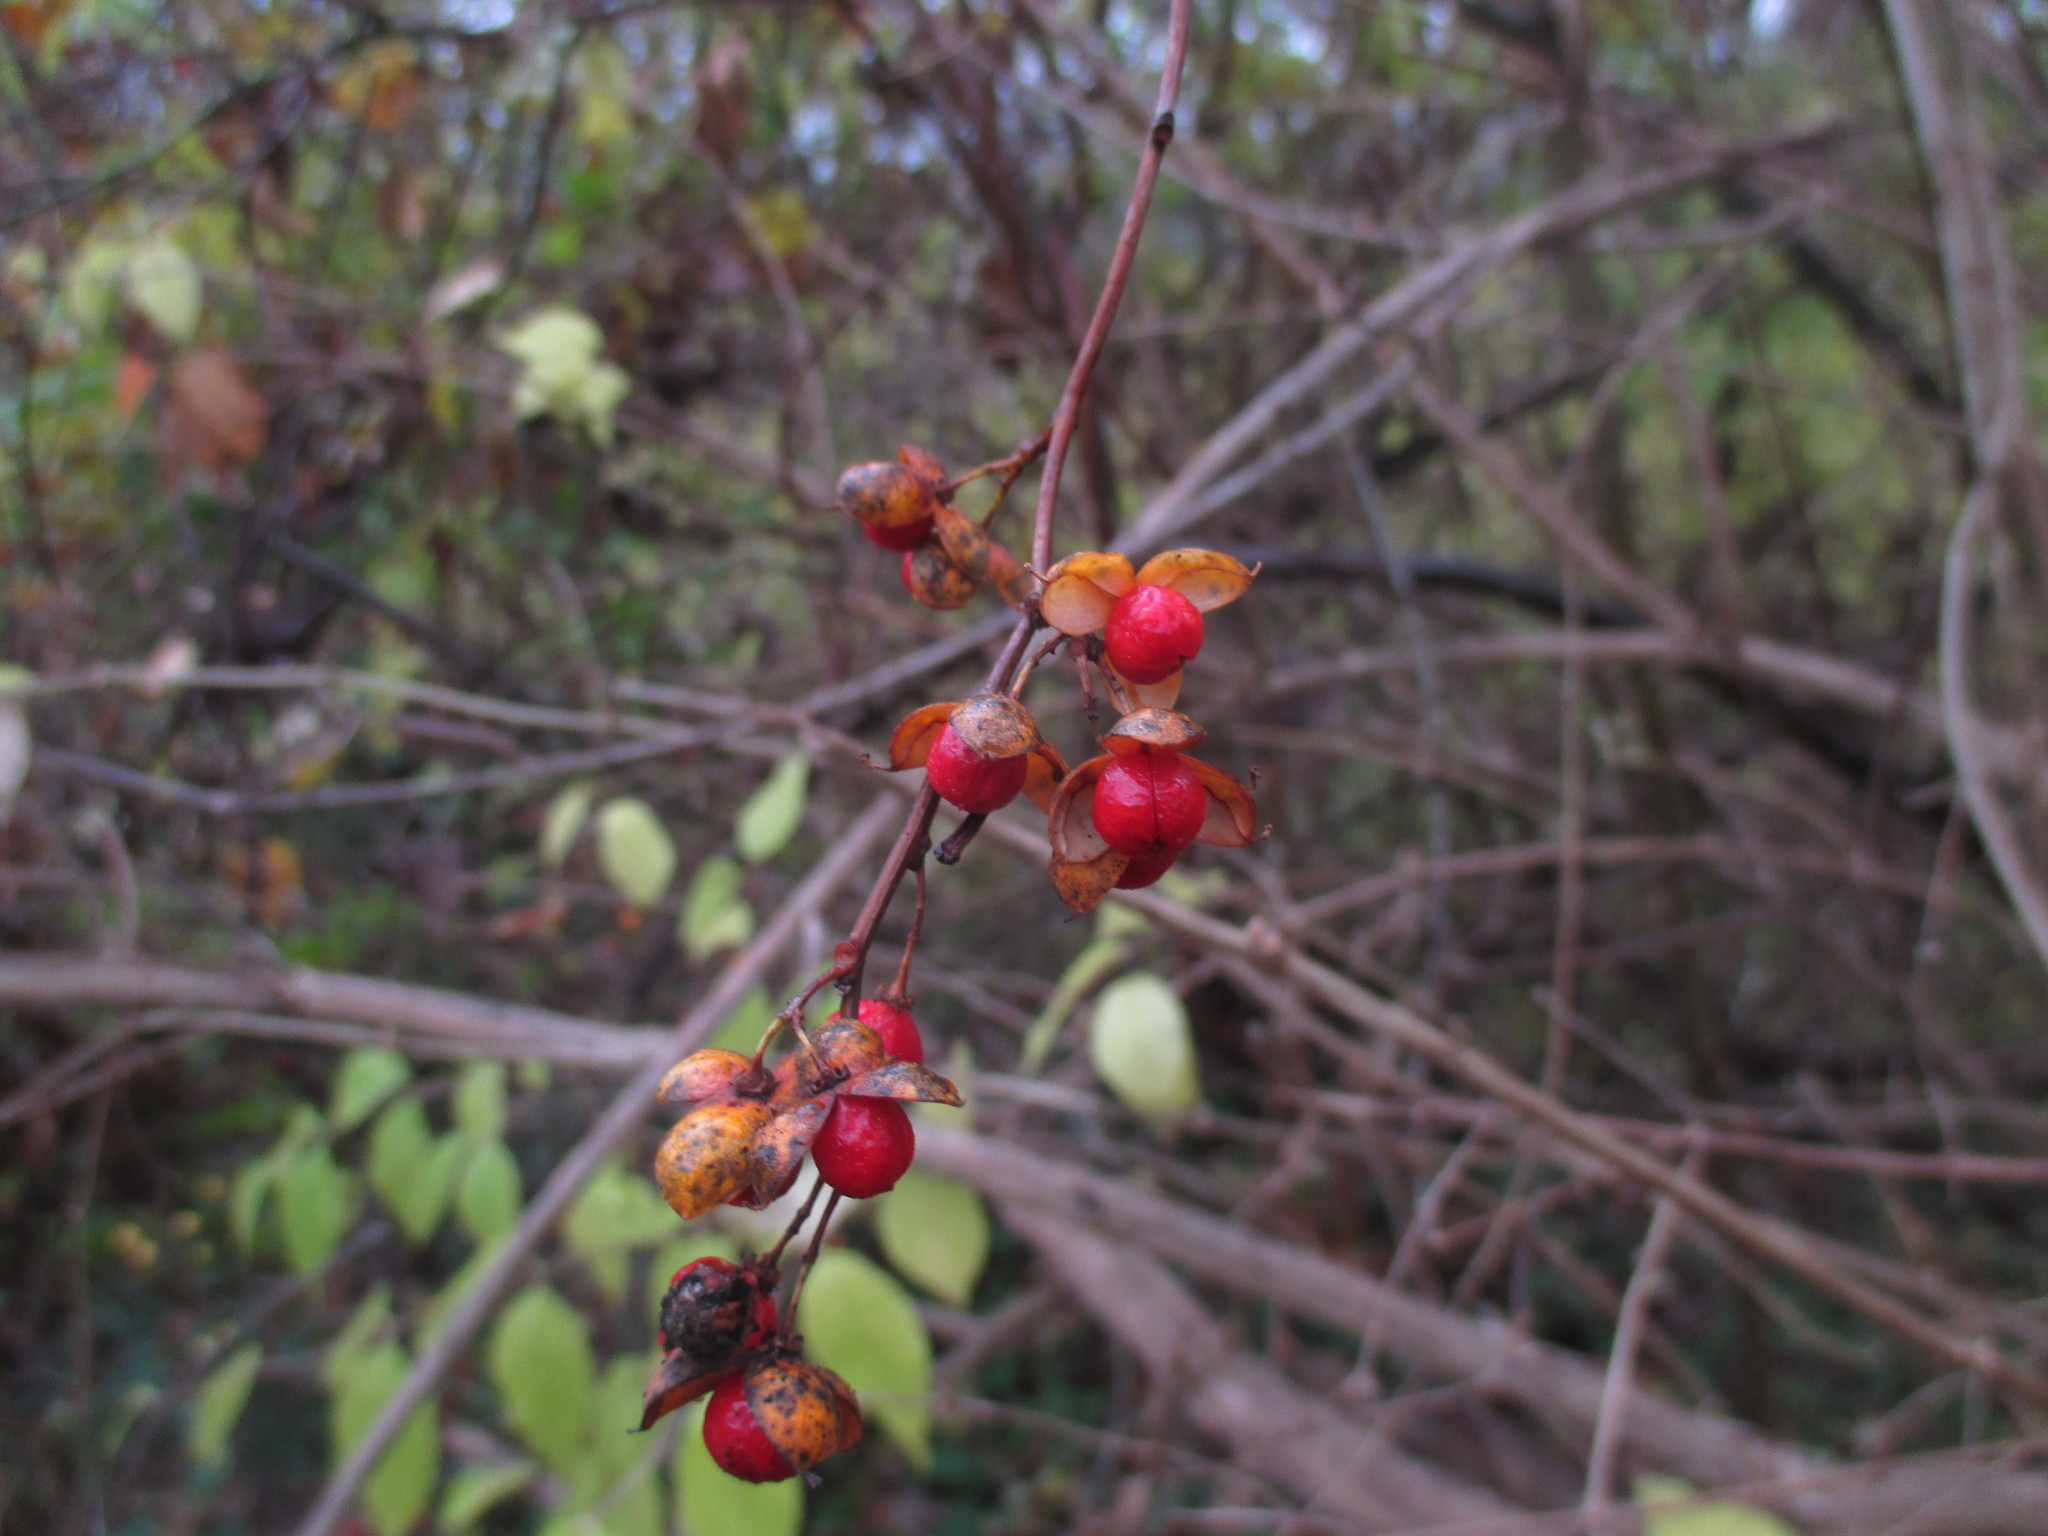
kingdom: Plantae
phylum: Tracheophyta
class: Magnoliopsida
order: Celastrales
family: Celastraceae
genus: Celastrus
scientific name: Celastrus orbiculatus
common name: Oriental bittersweet
